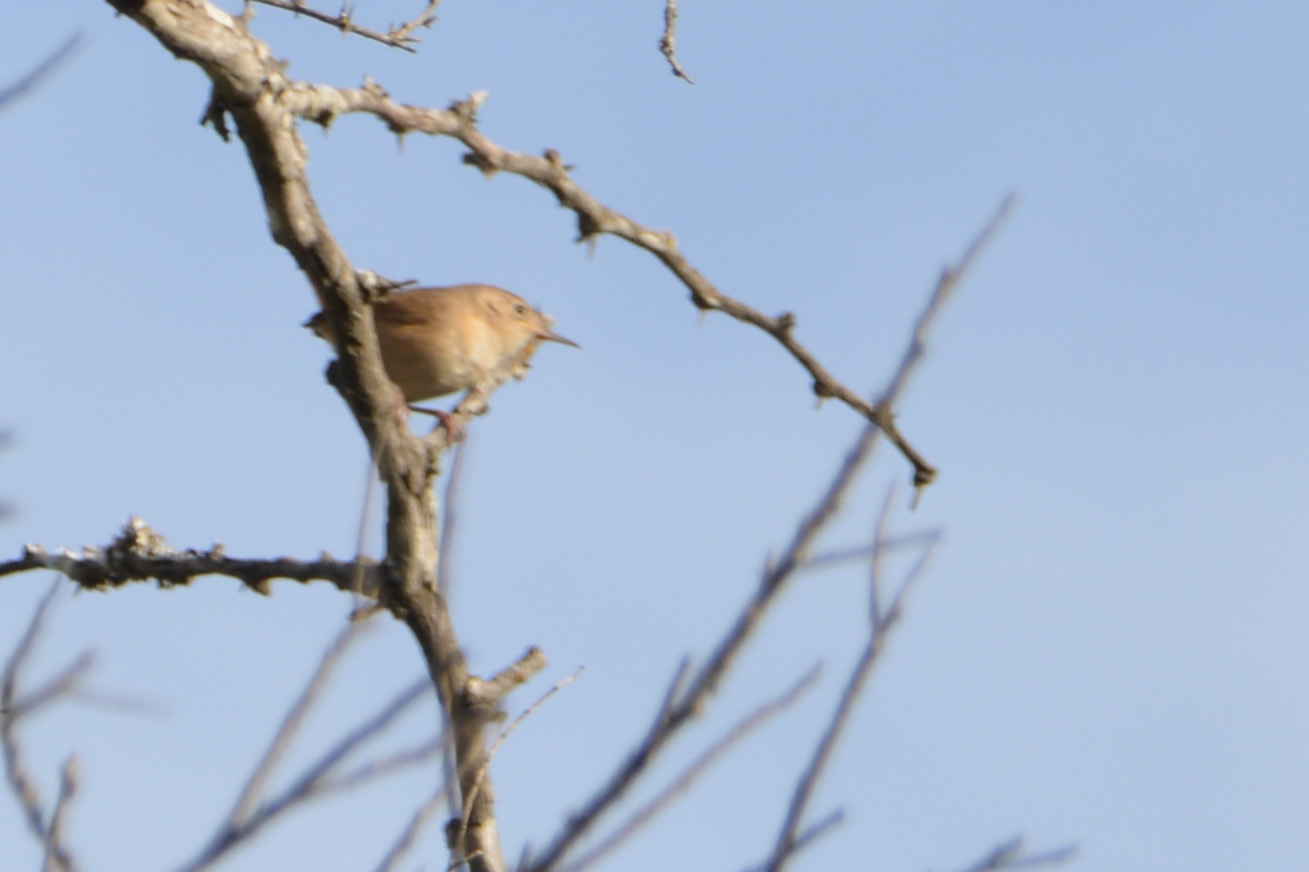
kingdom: Animalia
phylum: Chordata
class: Aves
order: Passeriformes
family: Troglodytidae
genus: Troglodytes
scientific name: Troglodytes aedon
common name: House wren
